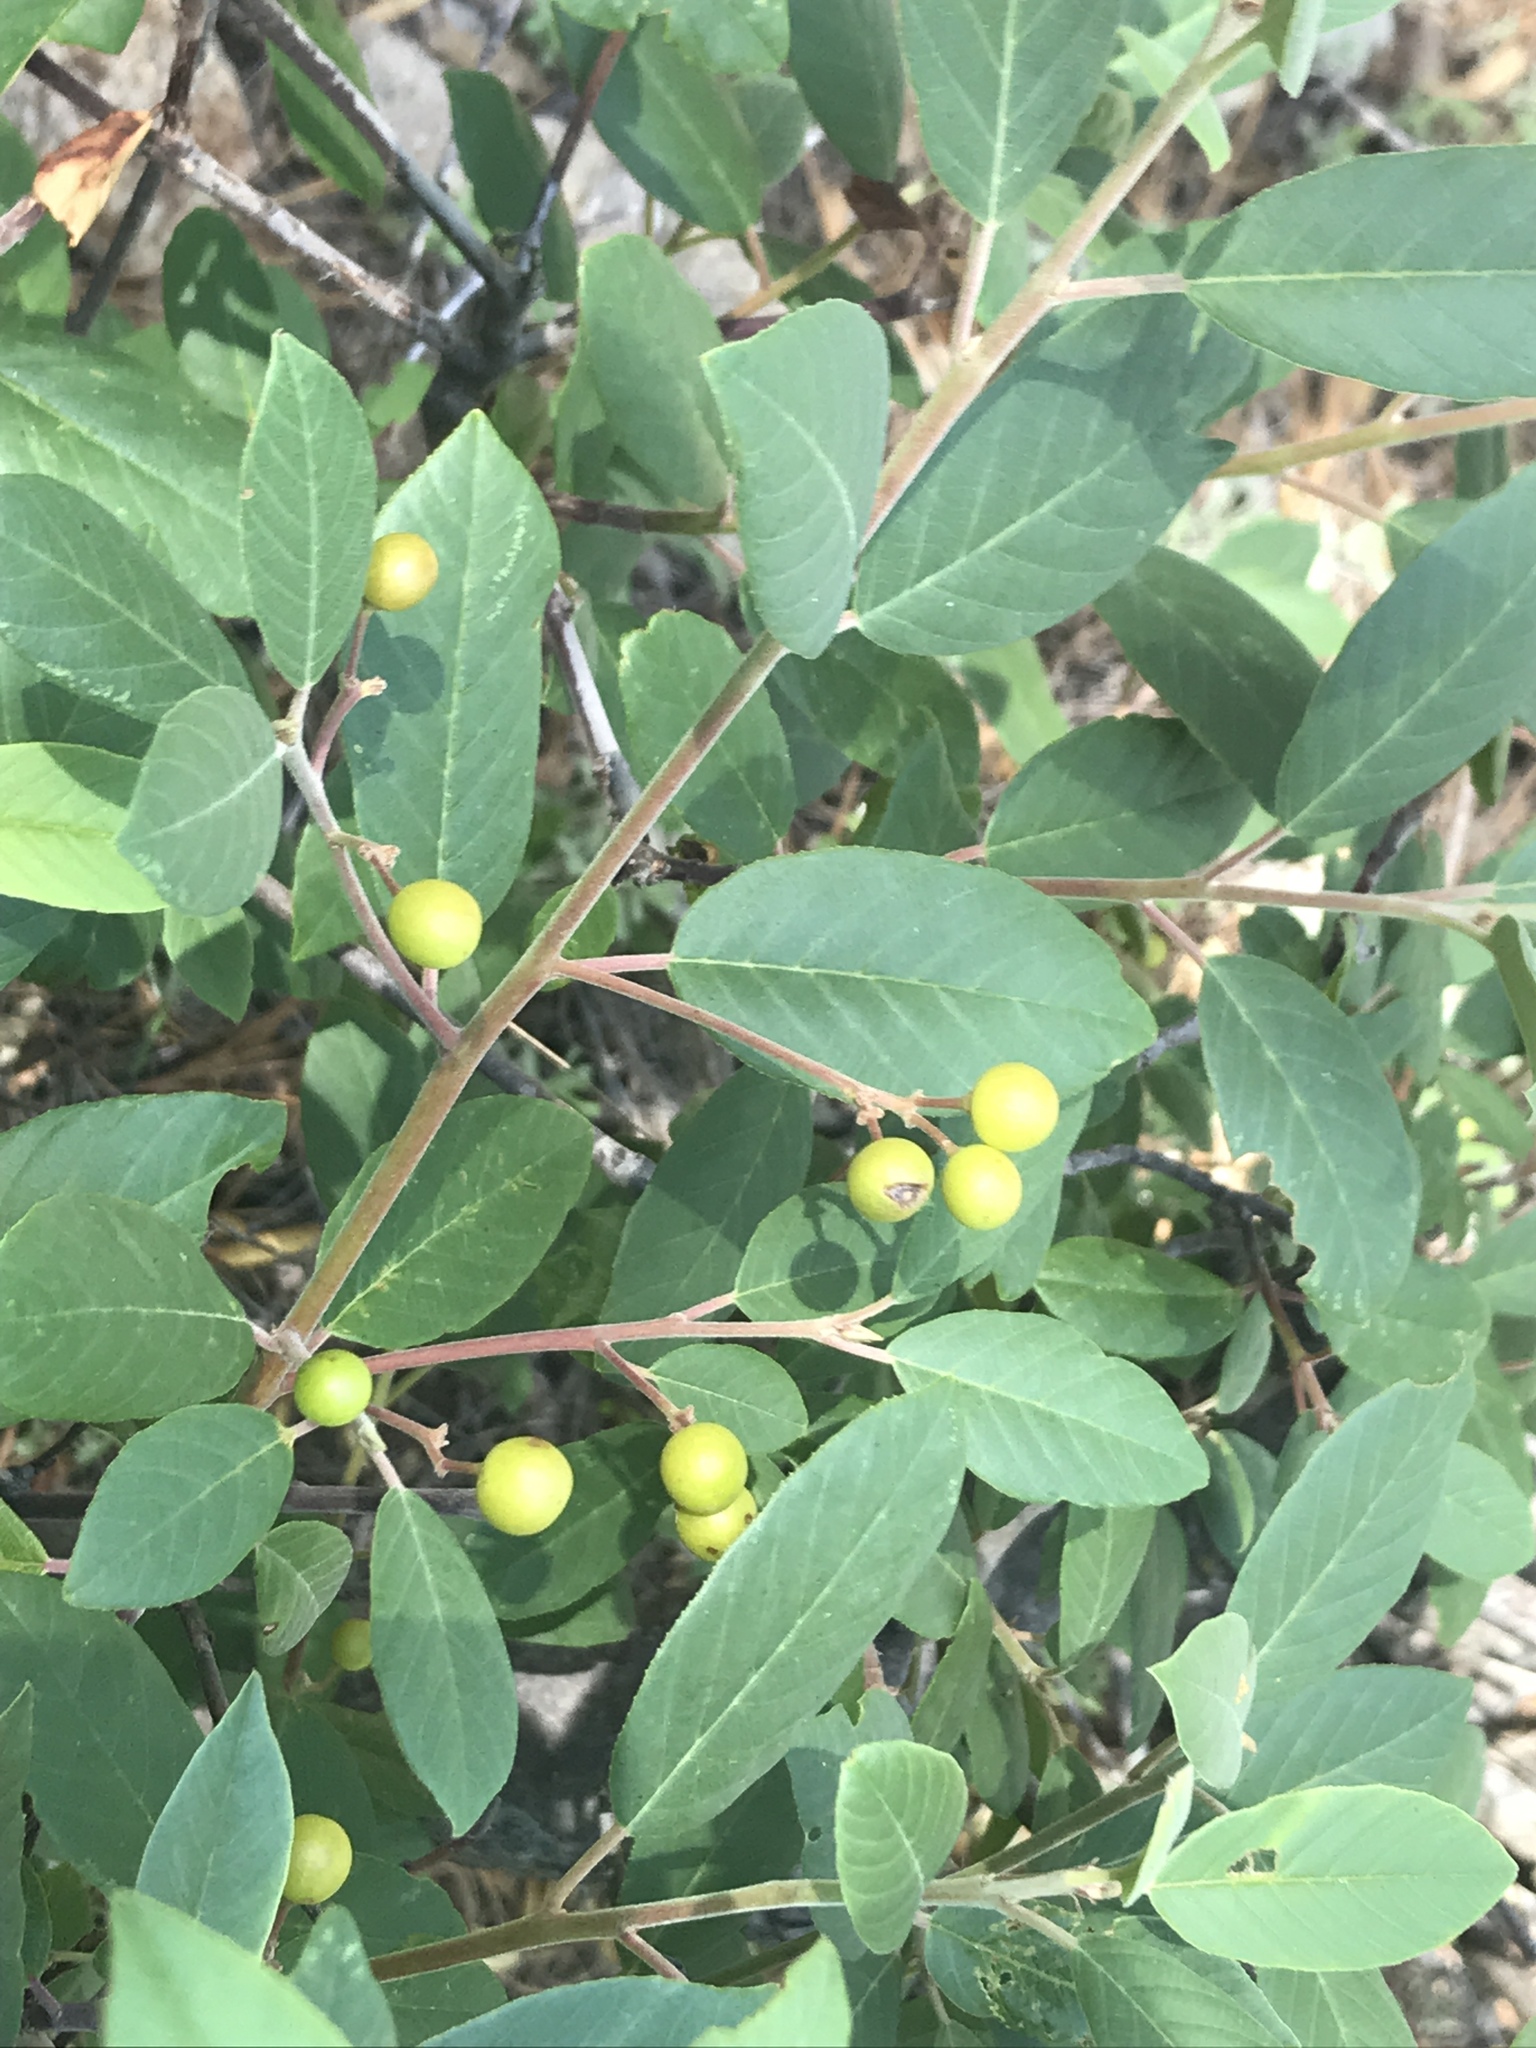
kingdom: Plantae
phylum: Tracheophyta
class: Magnoliopsida
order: Rosales
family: Rhamnaceae
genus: Frangula
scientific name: Frangula californica
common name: California buckthorn
